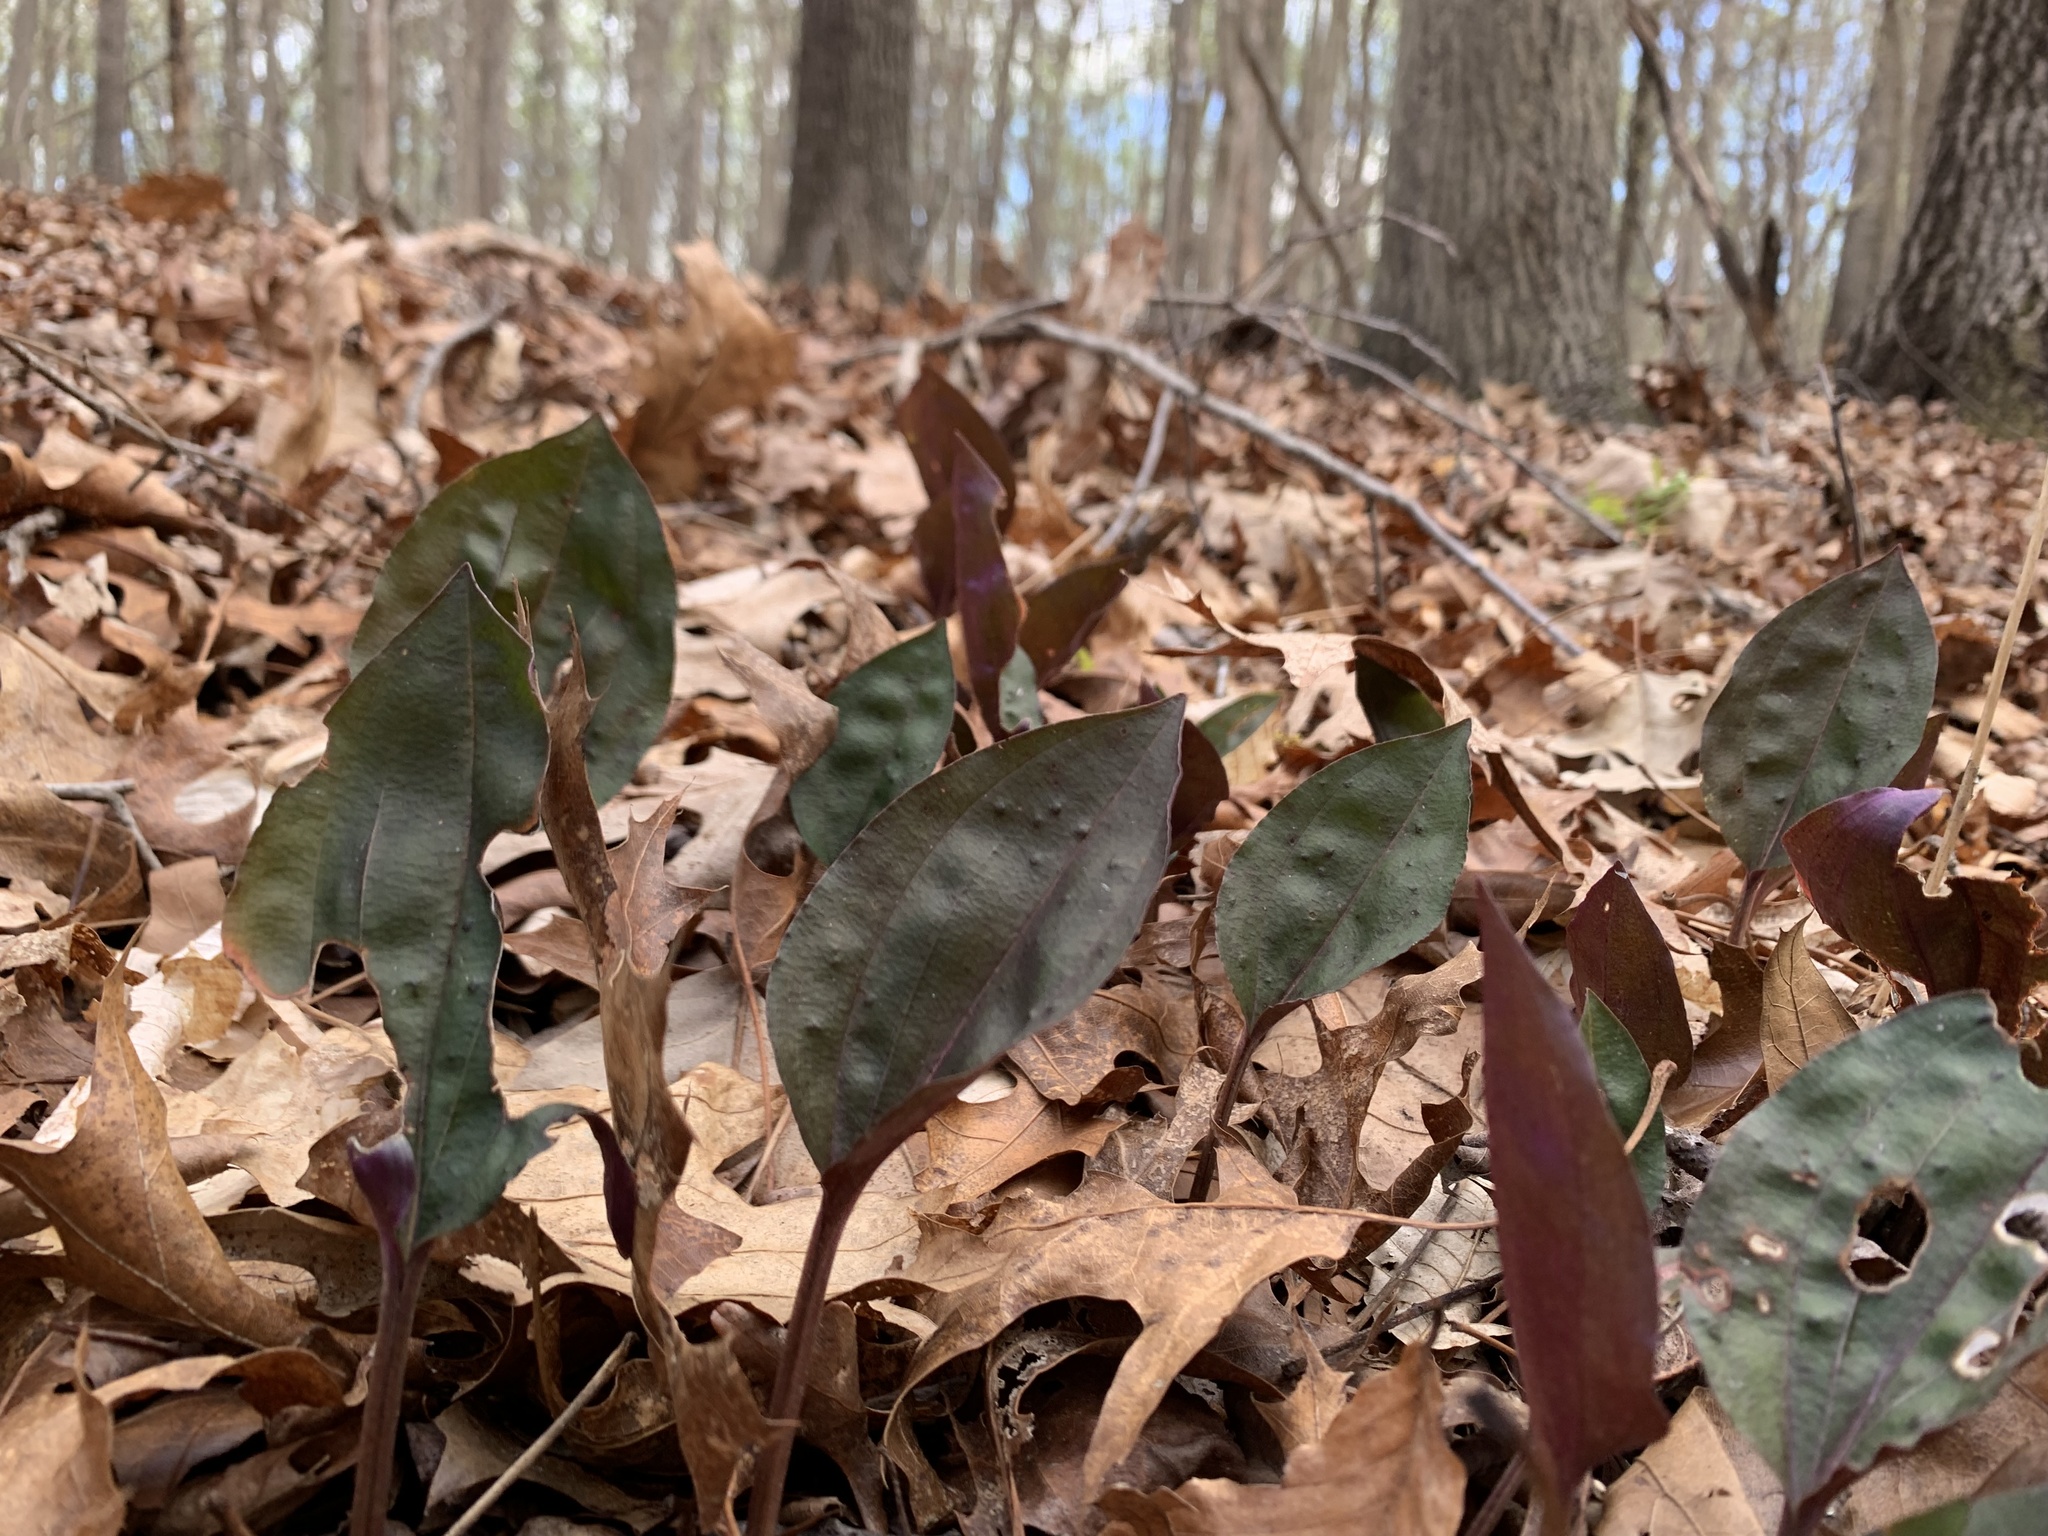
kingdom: Plantae
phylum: Tracheophyta
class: Liliopsida
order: Asparagales
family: Orchidaceae
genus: Tipularia
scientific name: Tipularia discolor
